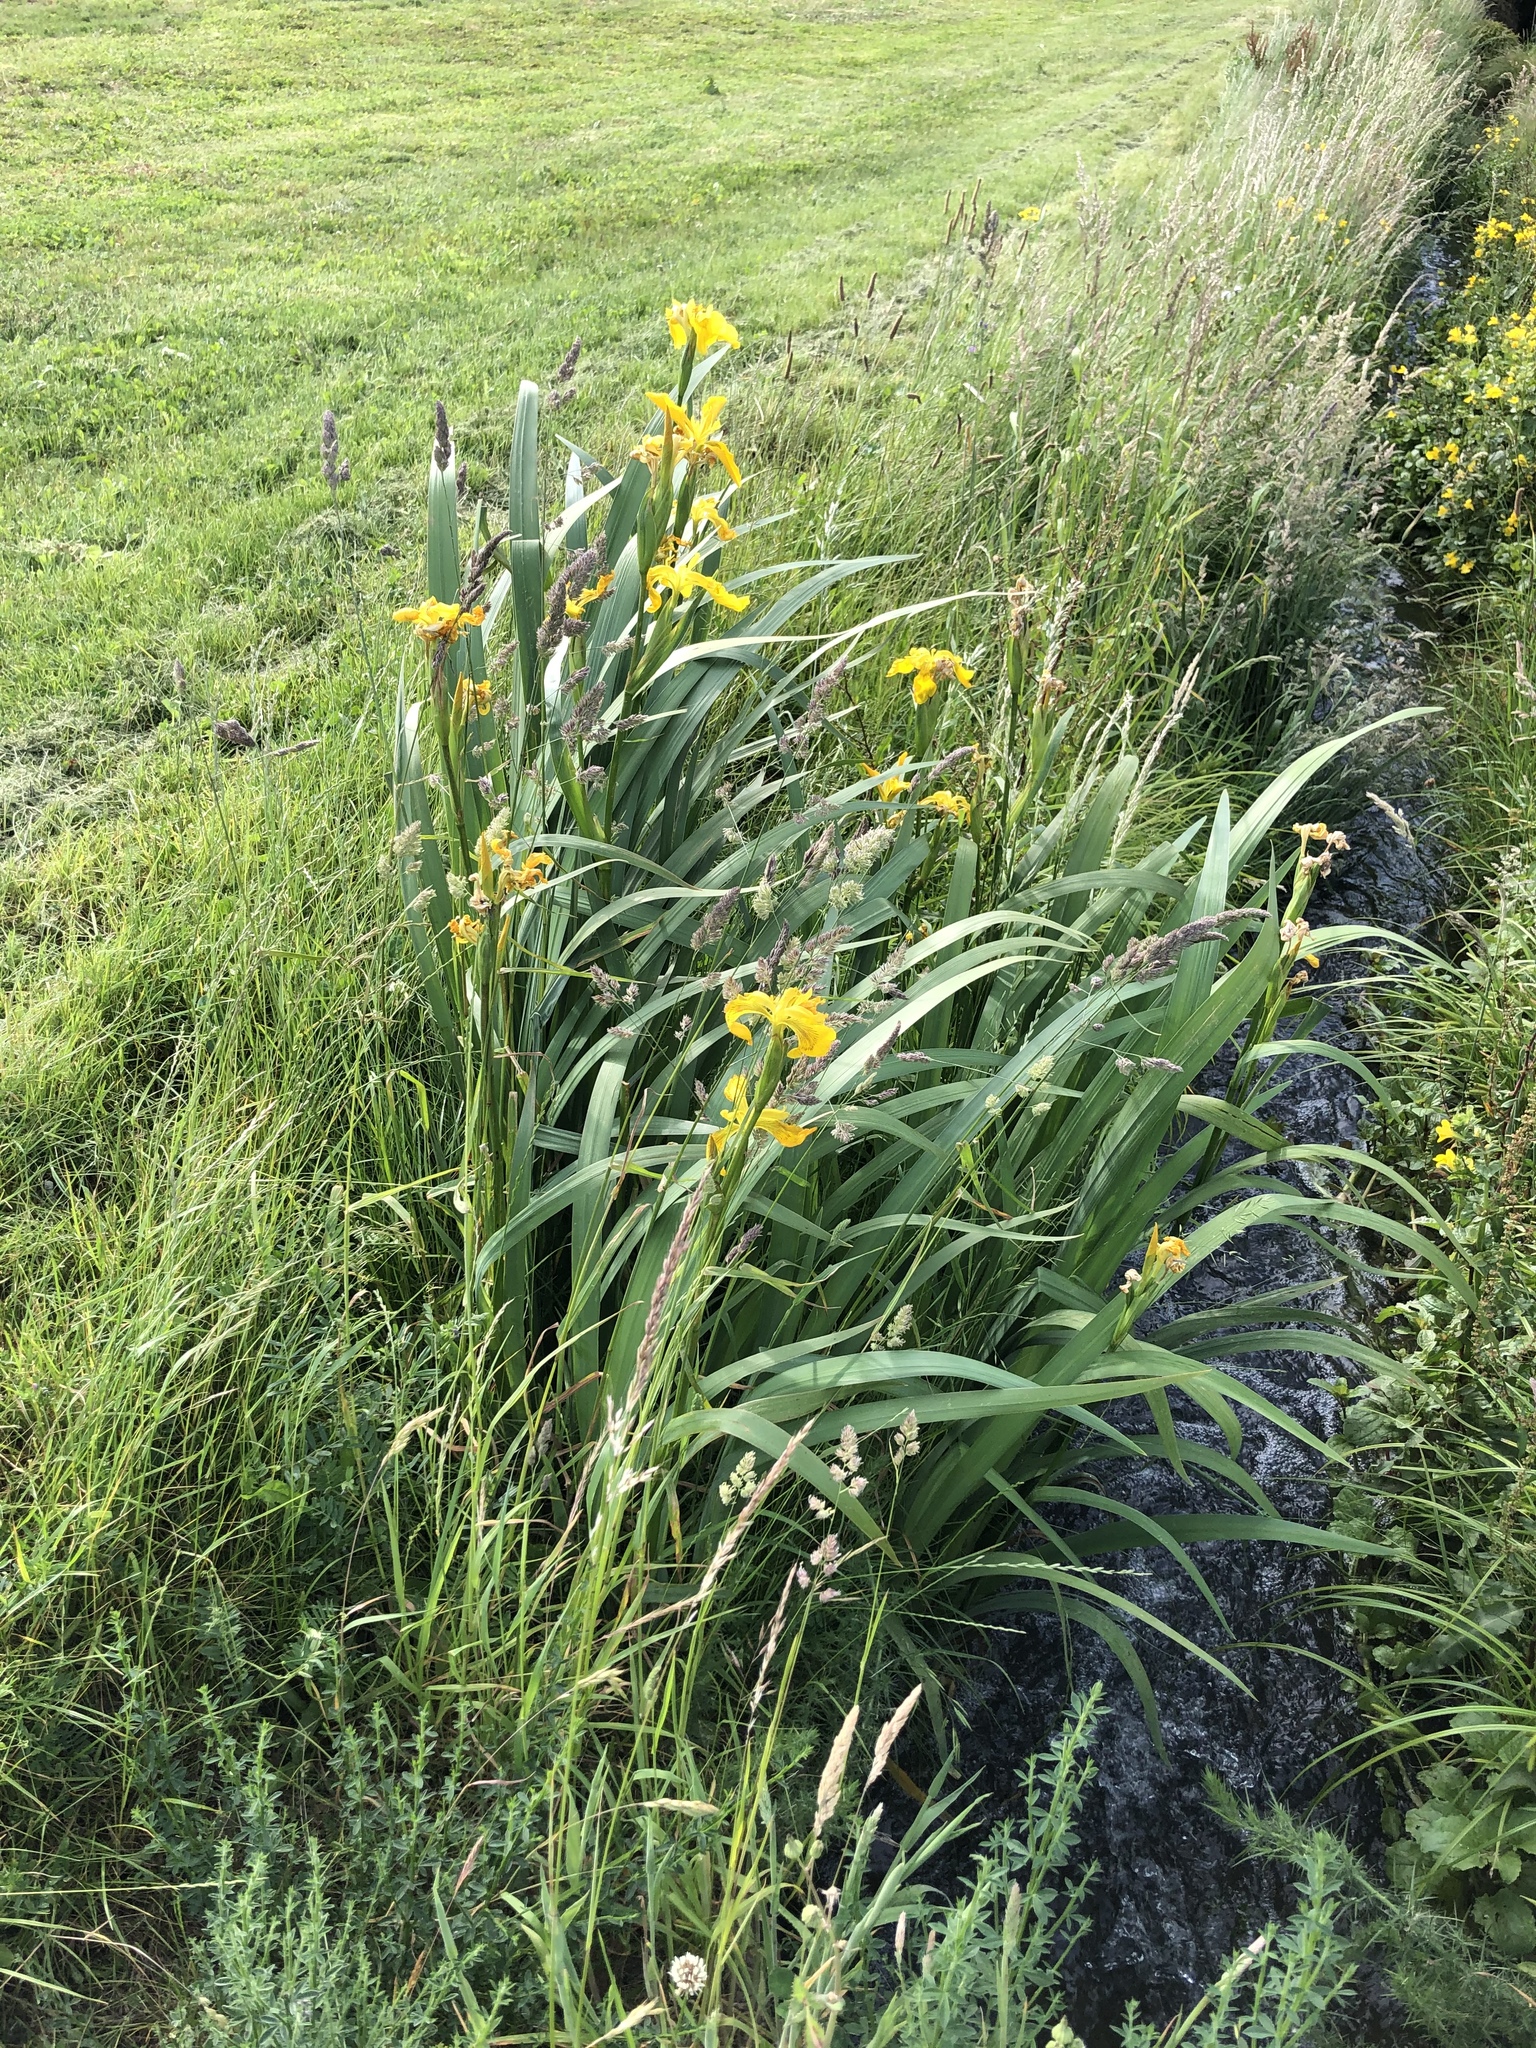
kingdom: Plantae
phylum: Tracheophyta
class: Liliopsida
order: Asparagales
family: Iridaceae
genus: Iris
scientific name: Iris pseudacorus
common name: Yellow flag
